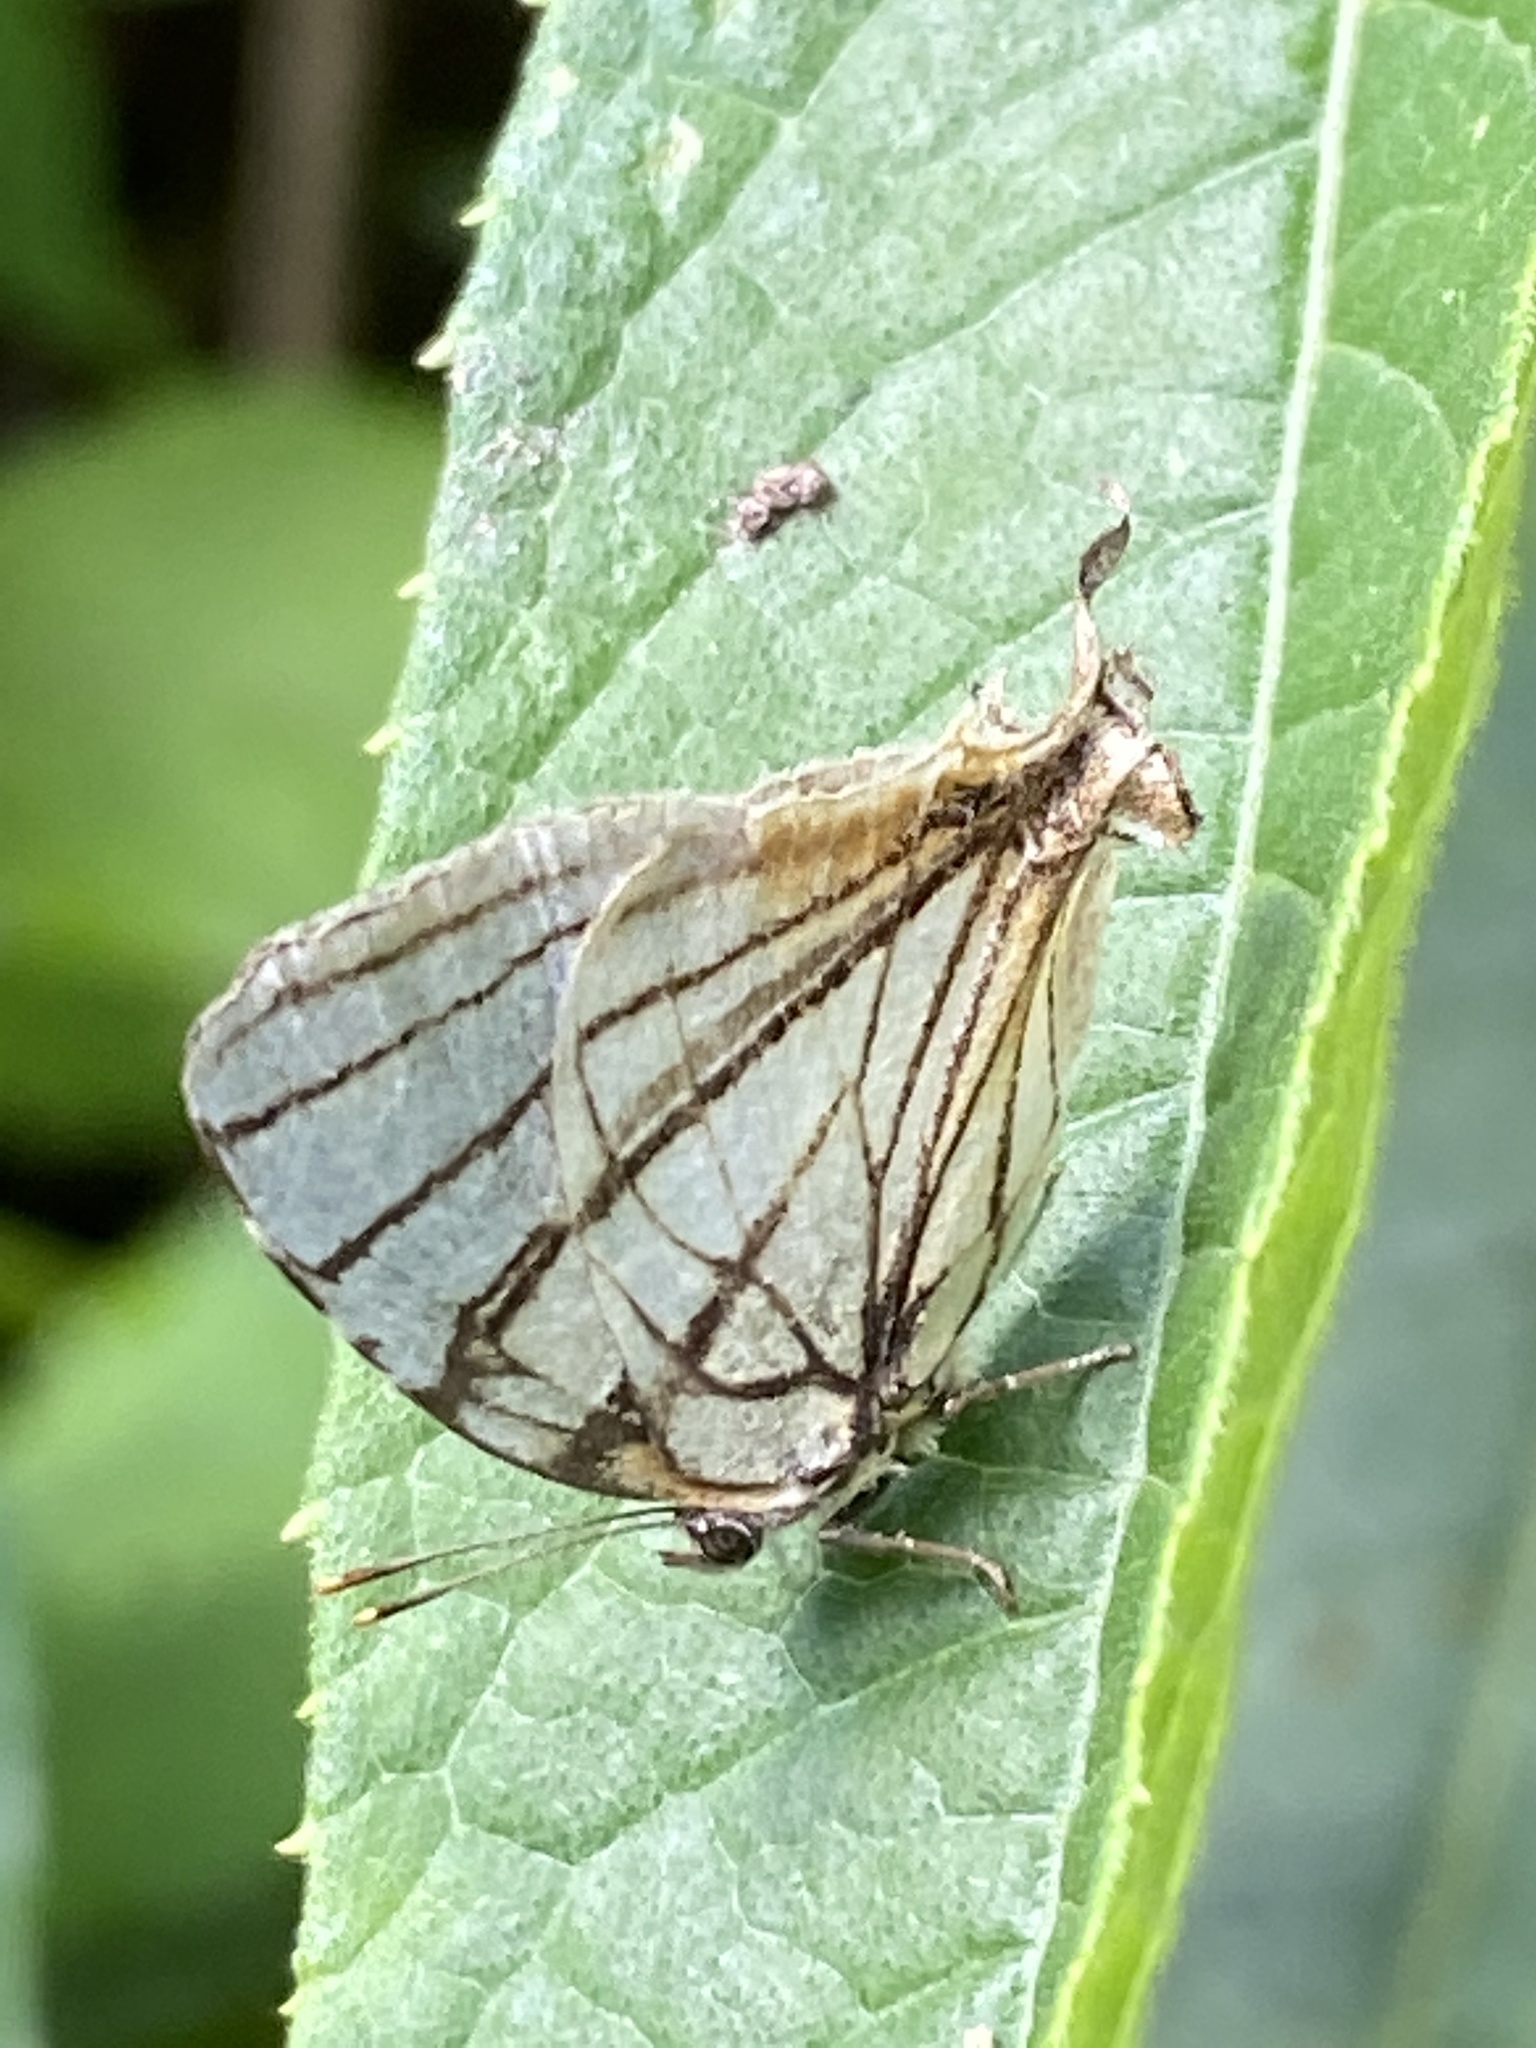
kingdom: Animalia
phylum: Arthropoda
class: Insecta
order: Lepidoptera
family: Lycaenidae
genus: Arawacus
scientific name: Arawacus melibaeus
